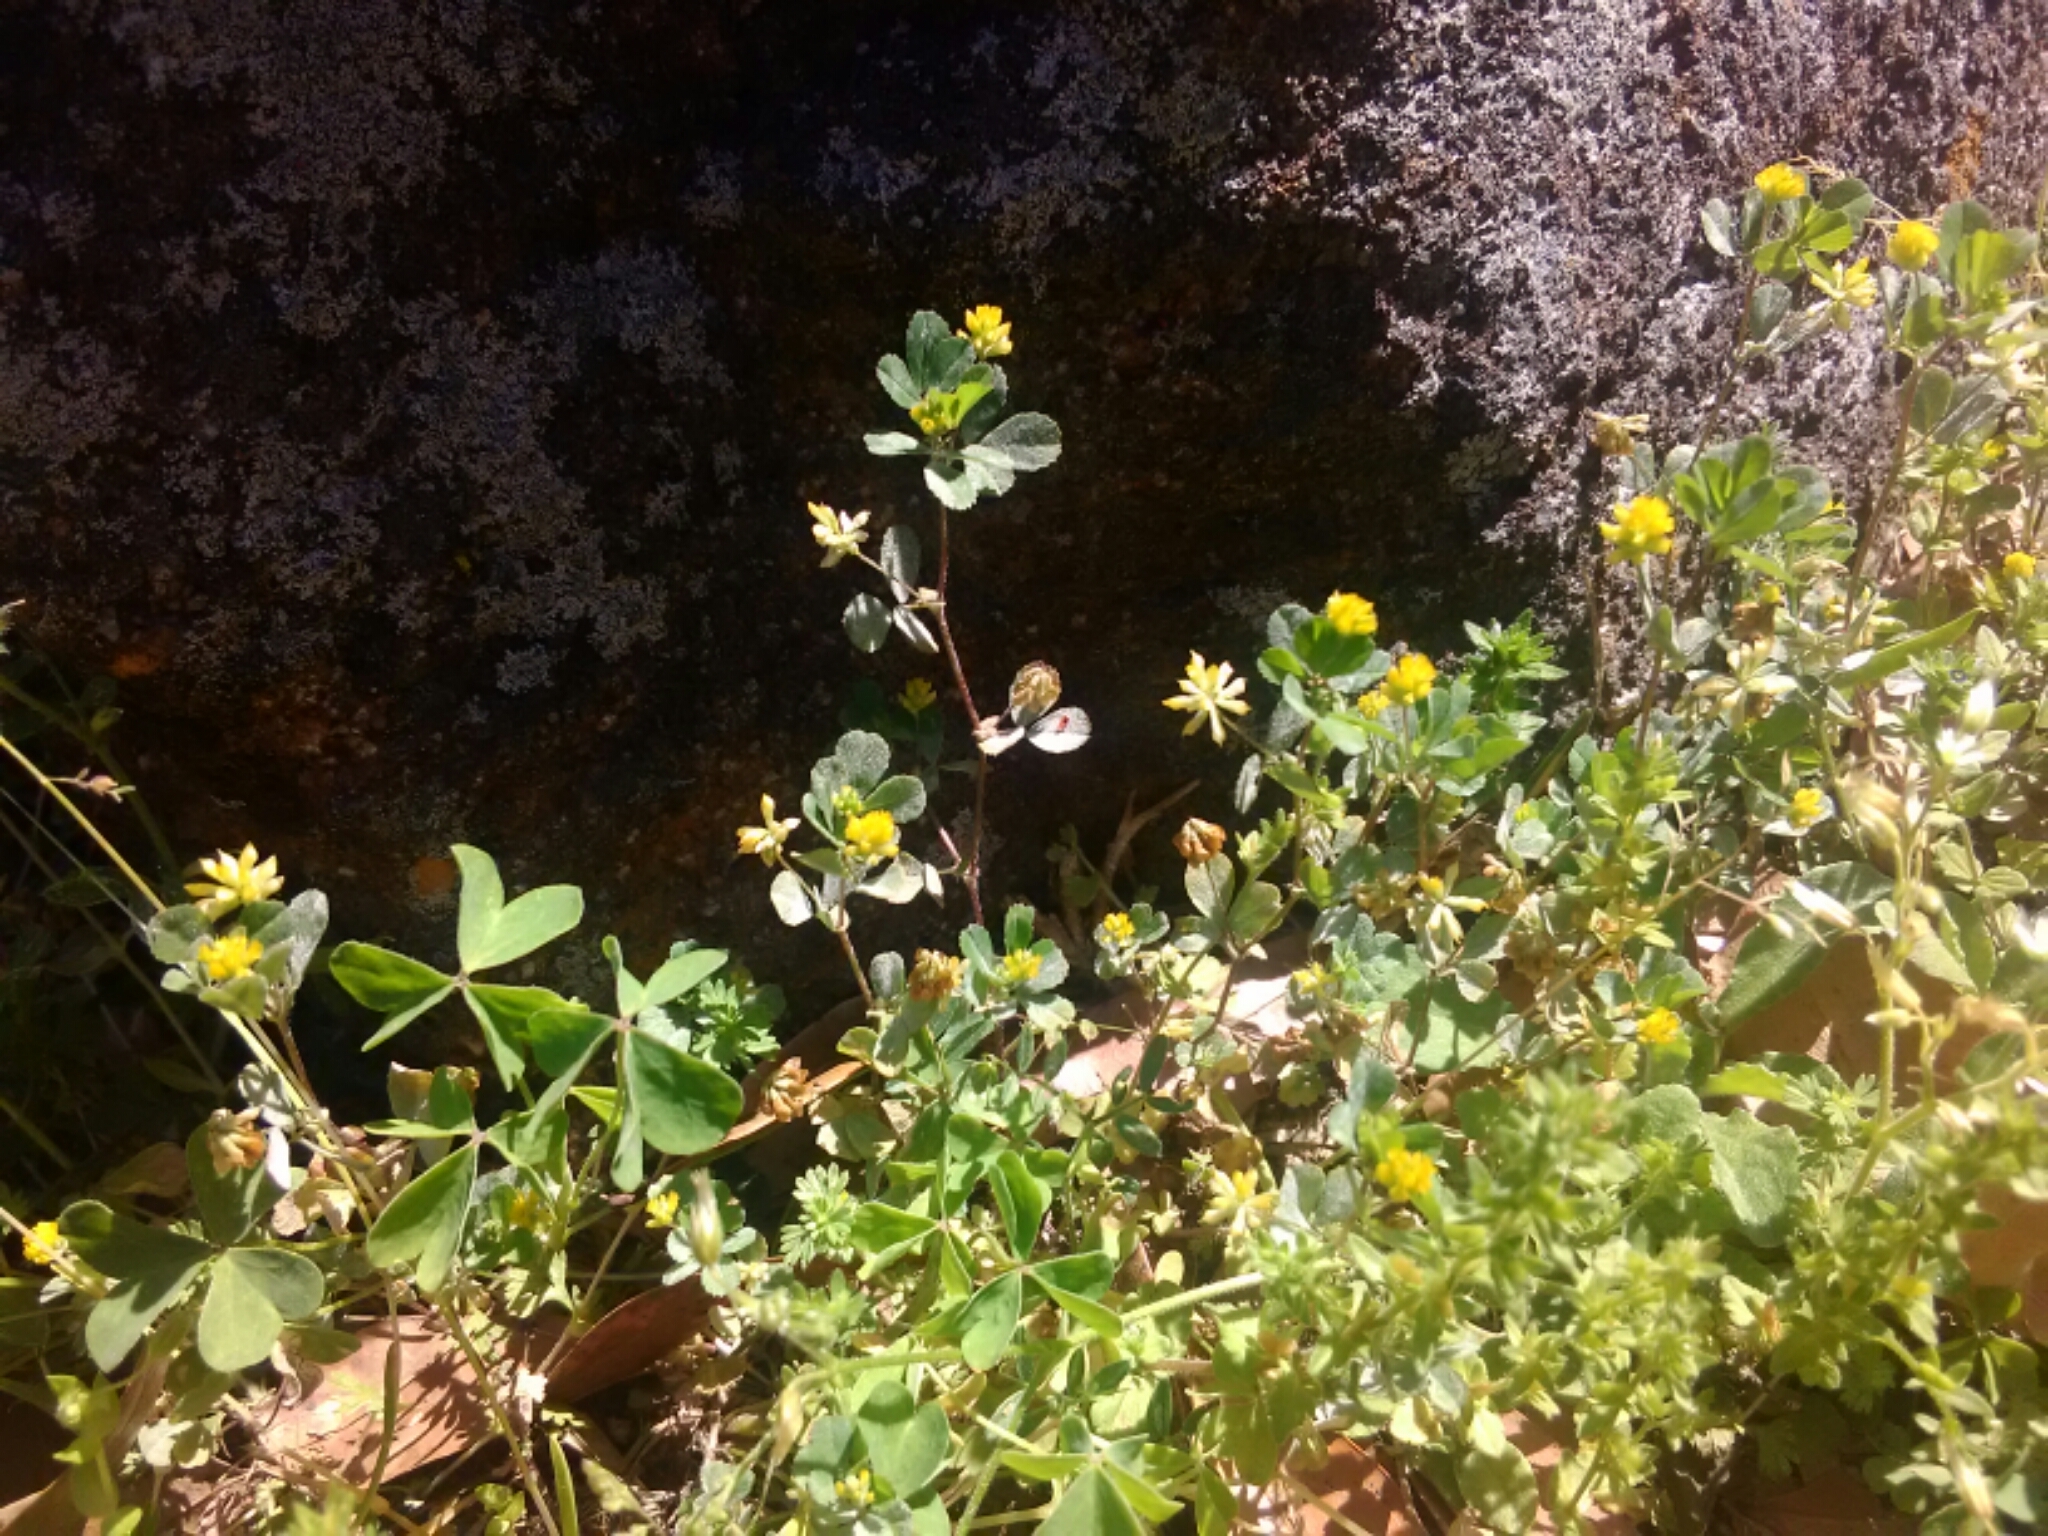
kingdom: Plantae
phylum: Tracheophyta
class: Magnoliopsida
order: Fabales
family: Fabaceae
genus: Trifolium
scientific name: Trifolium dubium
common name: Suckling clover
